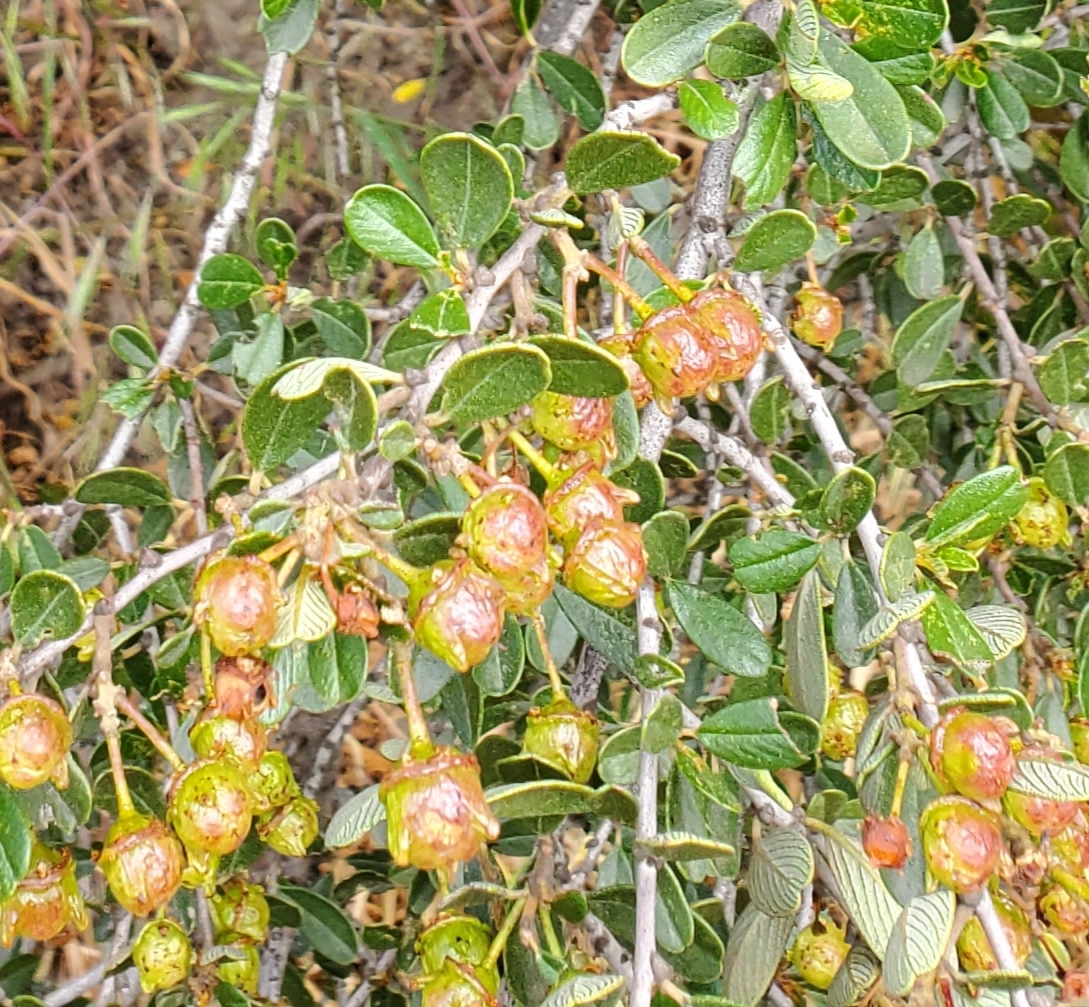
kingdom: Plantae
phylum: Tracheophyta
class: Magnoliopsida
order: Rosales
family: Rhamnaceae
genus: Ceanothus
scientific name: Ceanothus megacarpus
